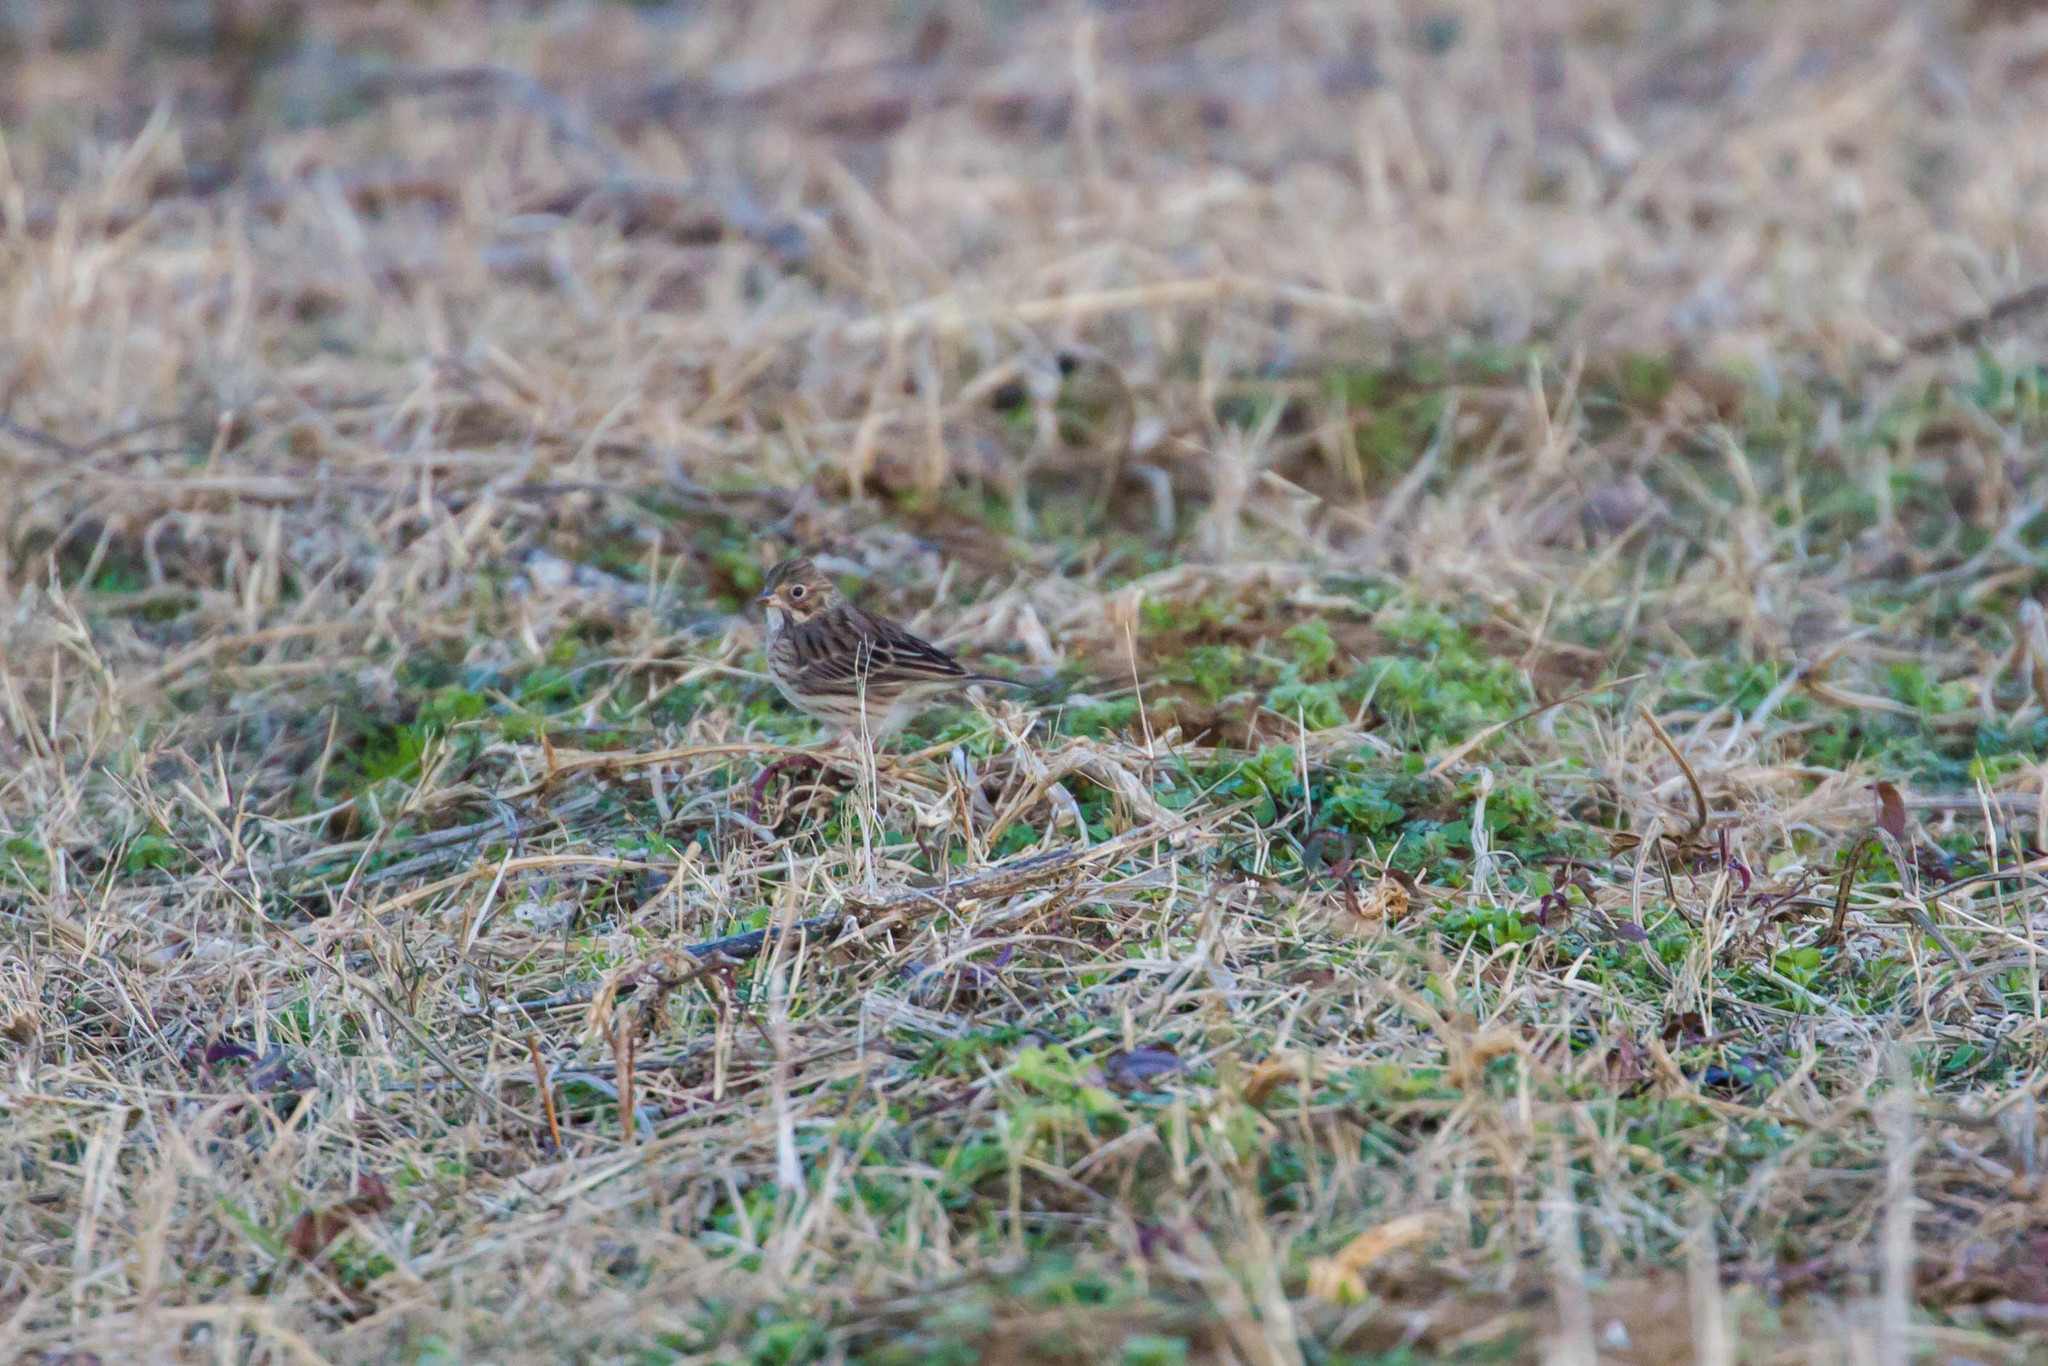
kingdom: Animalia
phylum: Chordata
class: Aves
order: Passeriformes
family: Passerellidae
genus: Pooecetes
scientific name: Pooecetes gramineus
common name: Vesper sparrow
